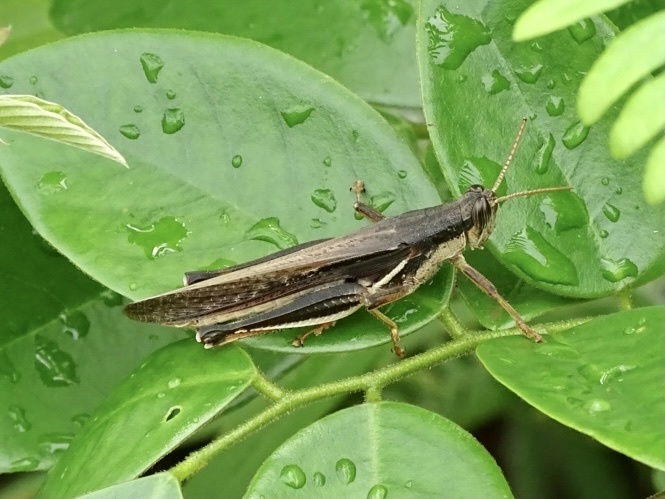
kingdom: Animalia
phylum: Arthropoda
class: Insecta
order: Orthoptera
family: Acrididae
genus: Stenocatantops
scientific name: Stenocatantops mistshenkoi
